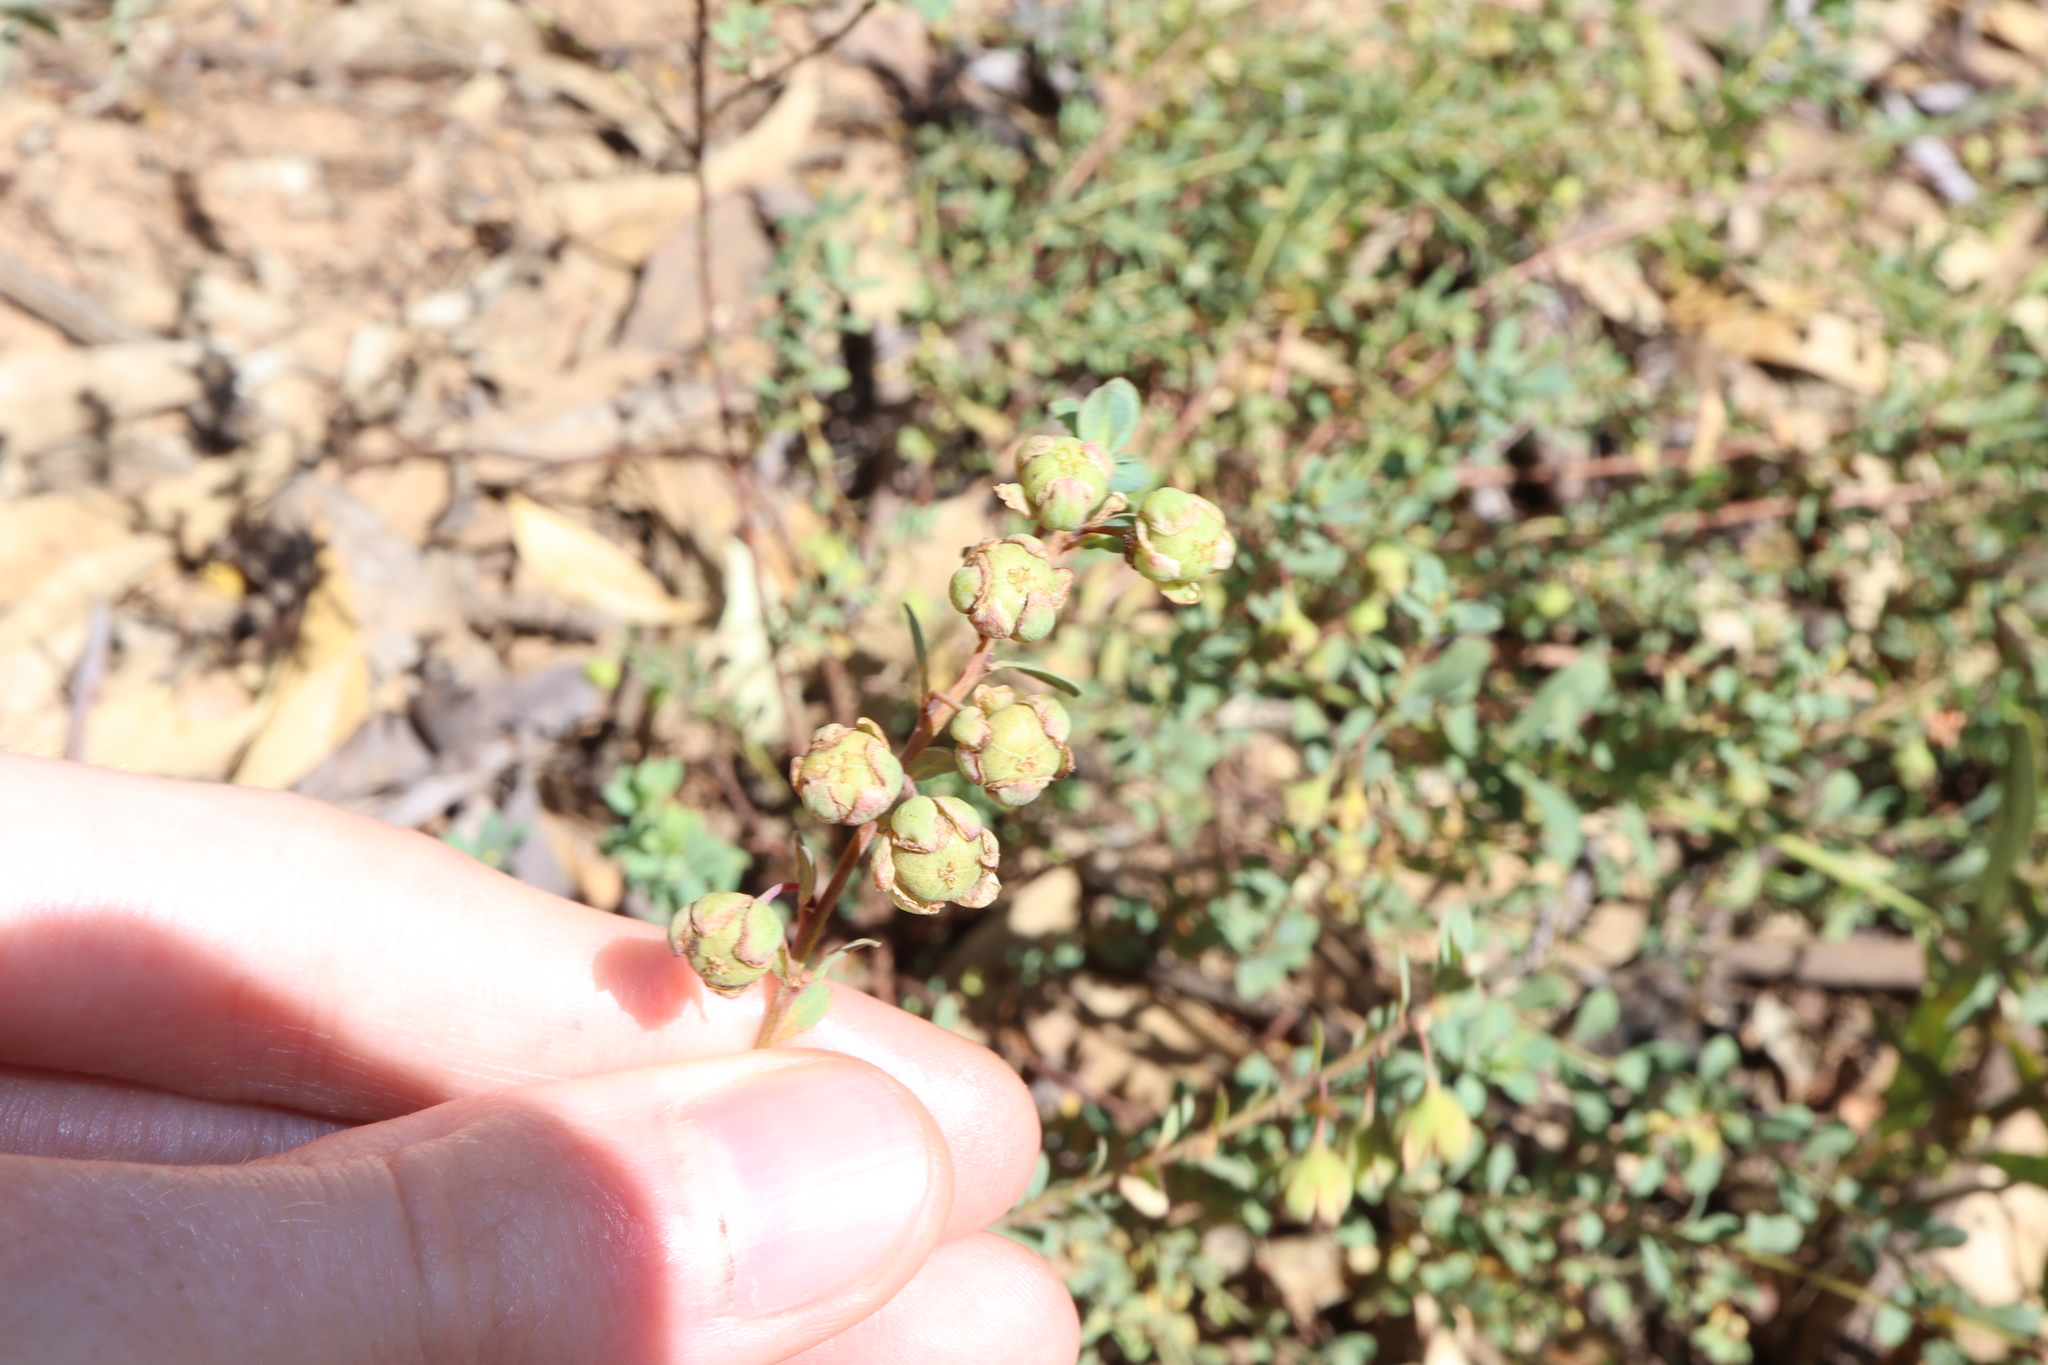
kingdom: Plantae
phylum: Tracheophyta
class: Magnoliopsida
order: Malpighiales
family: Phyllanthaceae
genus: Phyllanthus
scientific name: Phyllanthus calycinus
